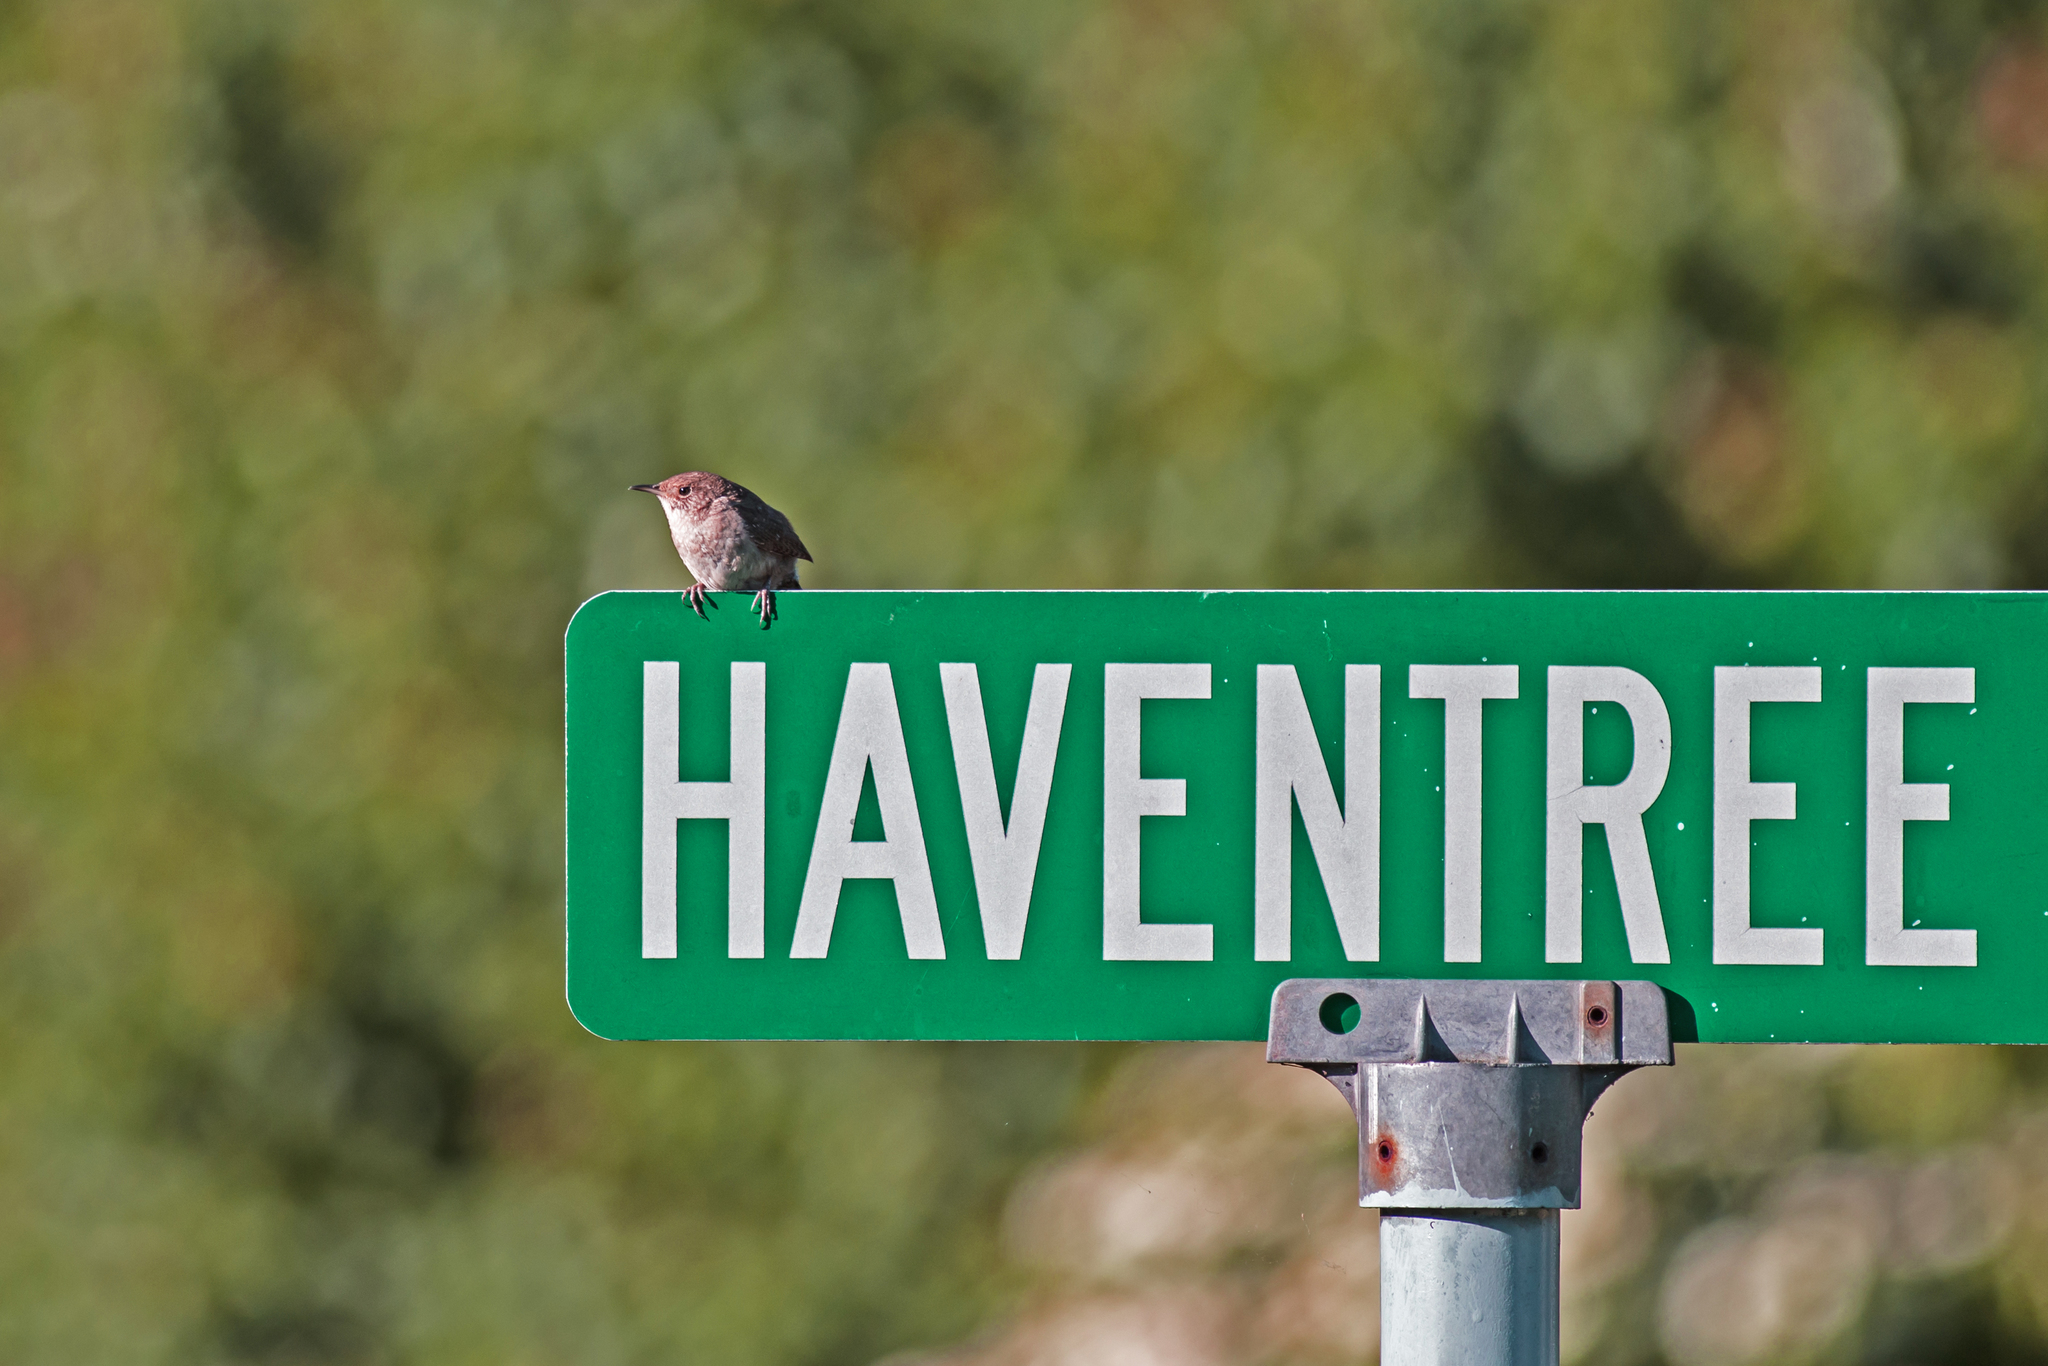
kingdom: Animalia
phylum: Chordata
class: Aves
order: Passeriformes
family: Troglodytidae
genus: Troglodytes
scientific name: Troglodytes aedon
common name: House wren
